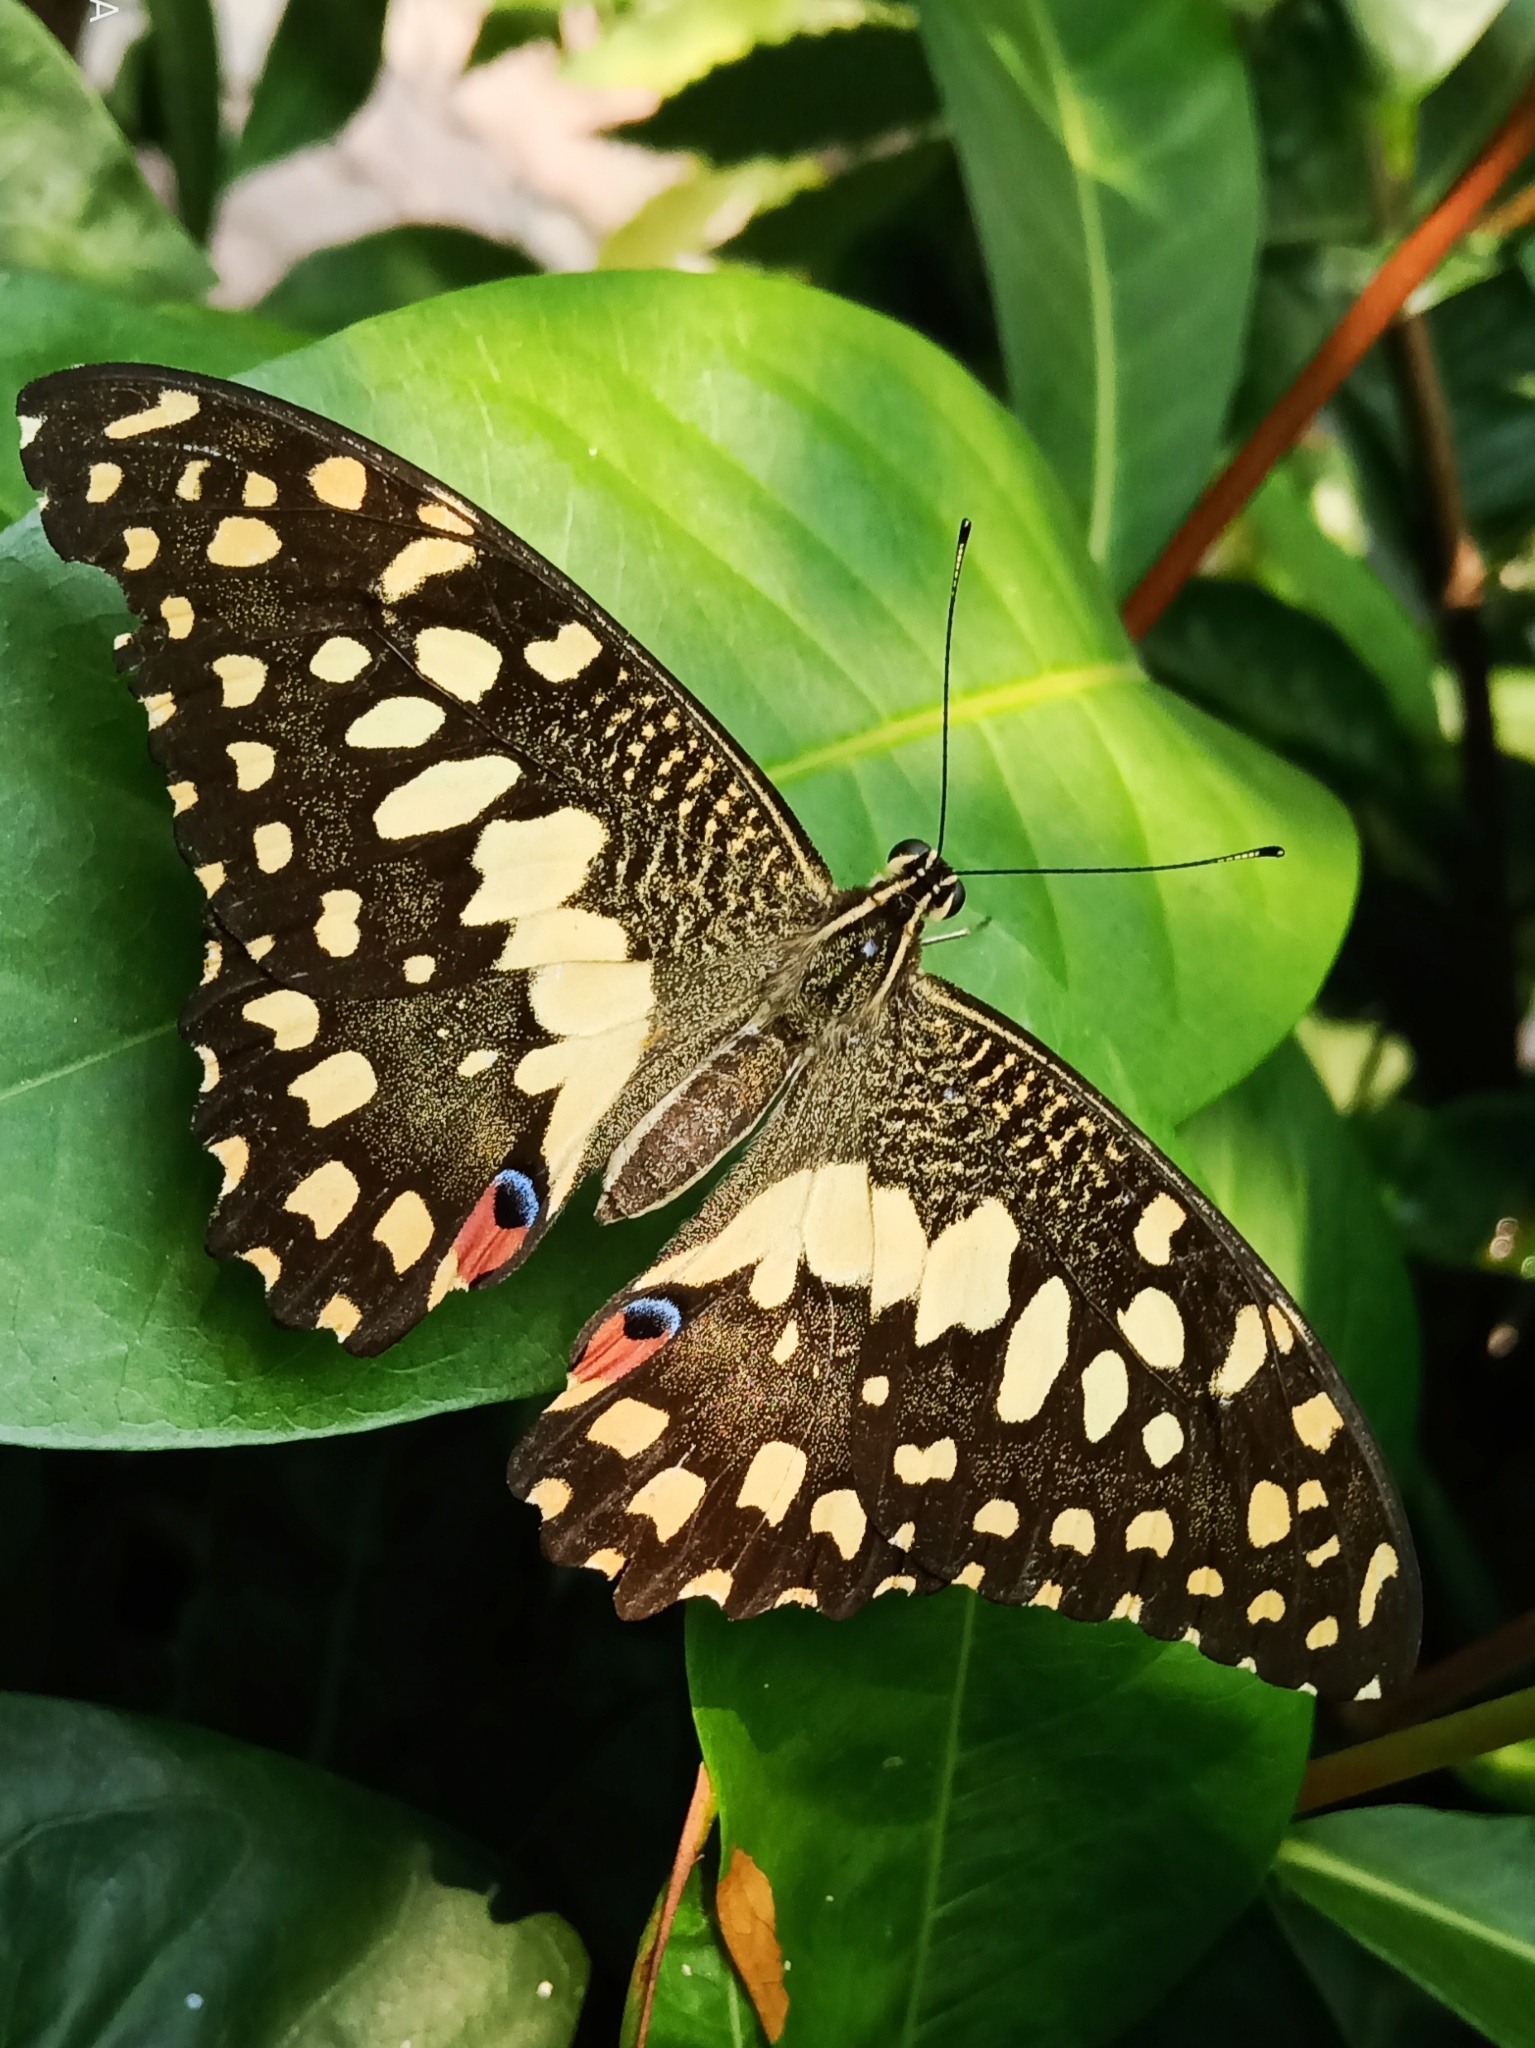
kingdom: Animalia
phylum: Arthropoda
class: Insecta
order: Lepidoptera
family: Papilionidae
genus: Papilio
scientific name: Papilio demoleus
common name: Lime butterfly
